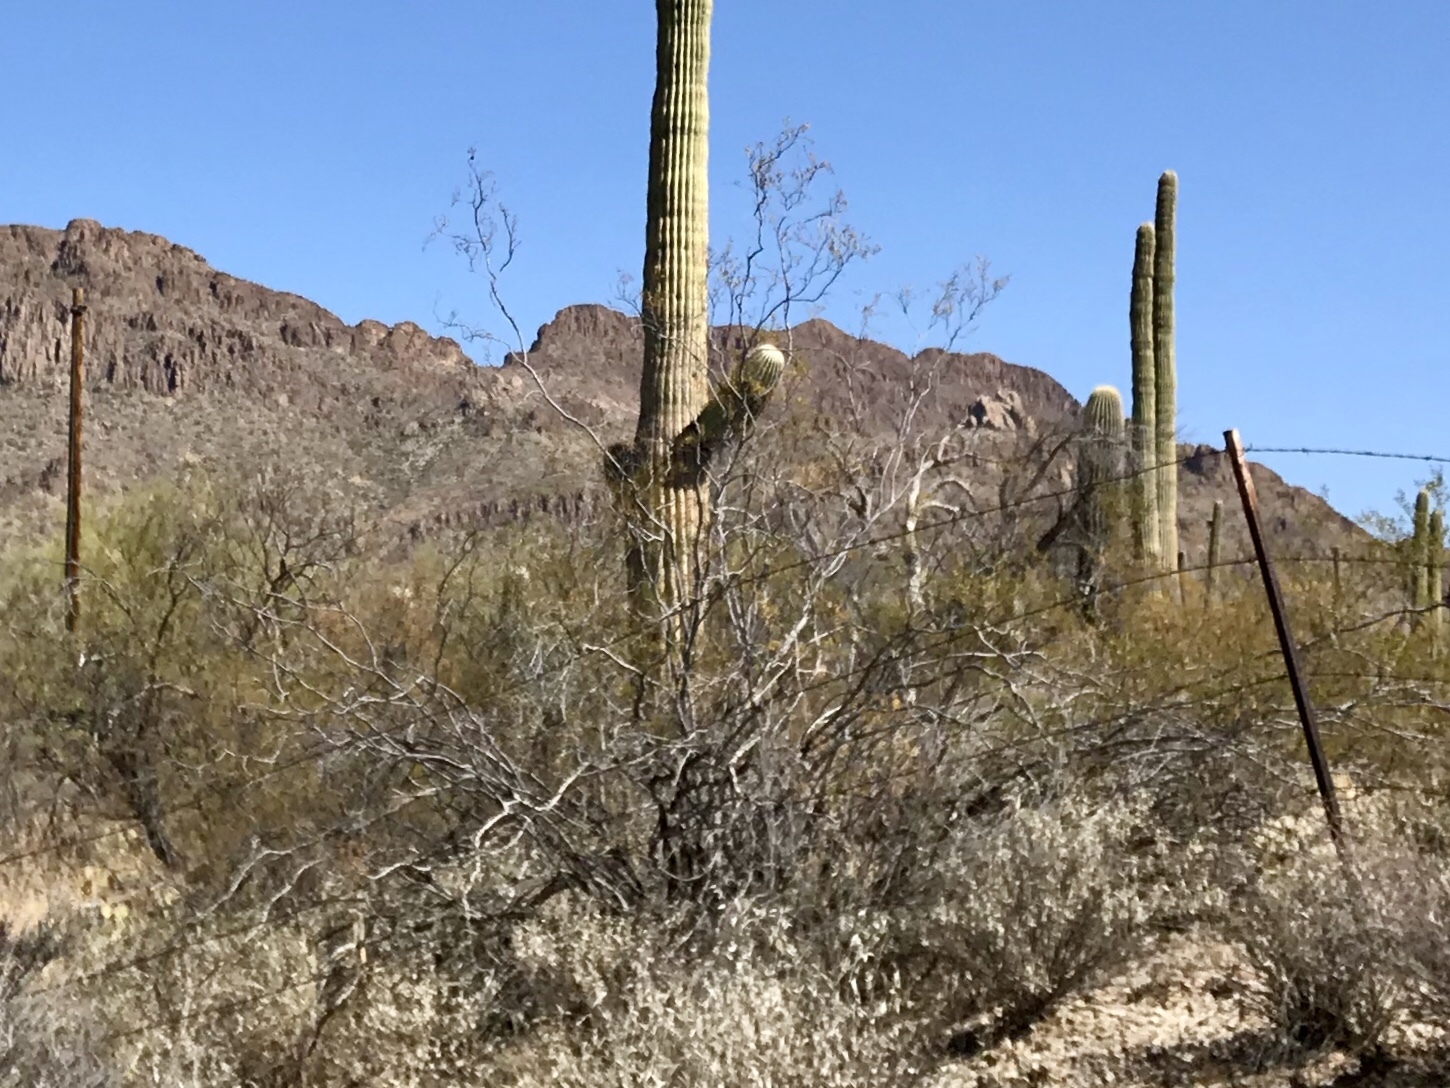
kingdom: Plantae
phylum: Tracheophyta
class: Magnoliopsida
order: Zygophyllales
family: Zygophyllaceae
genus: Larrea
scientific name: Larrea tridentata
